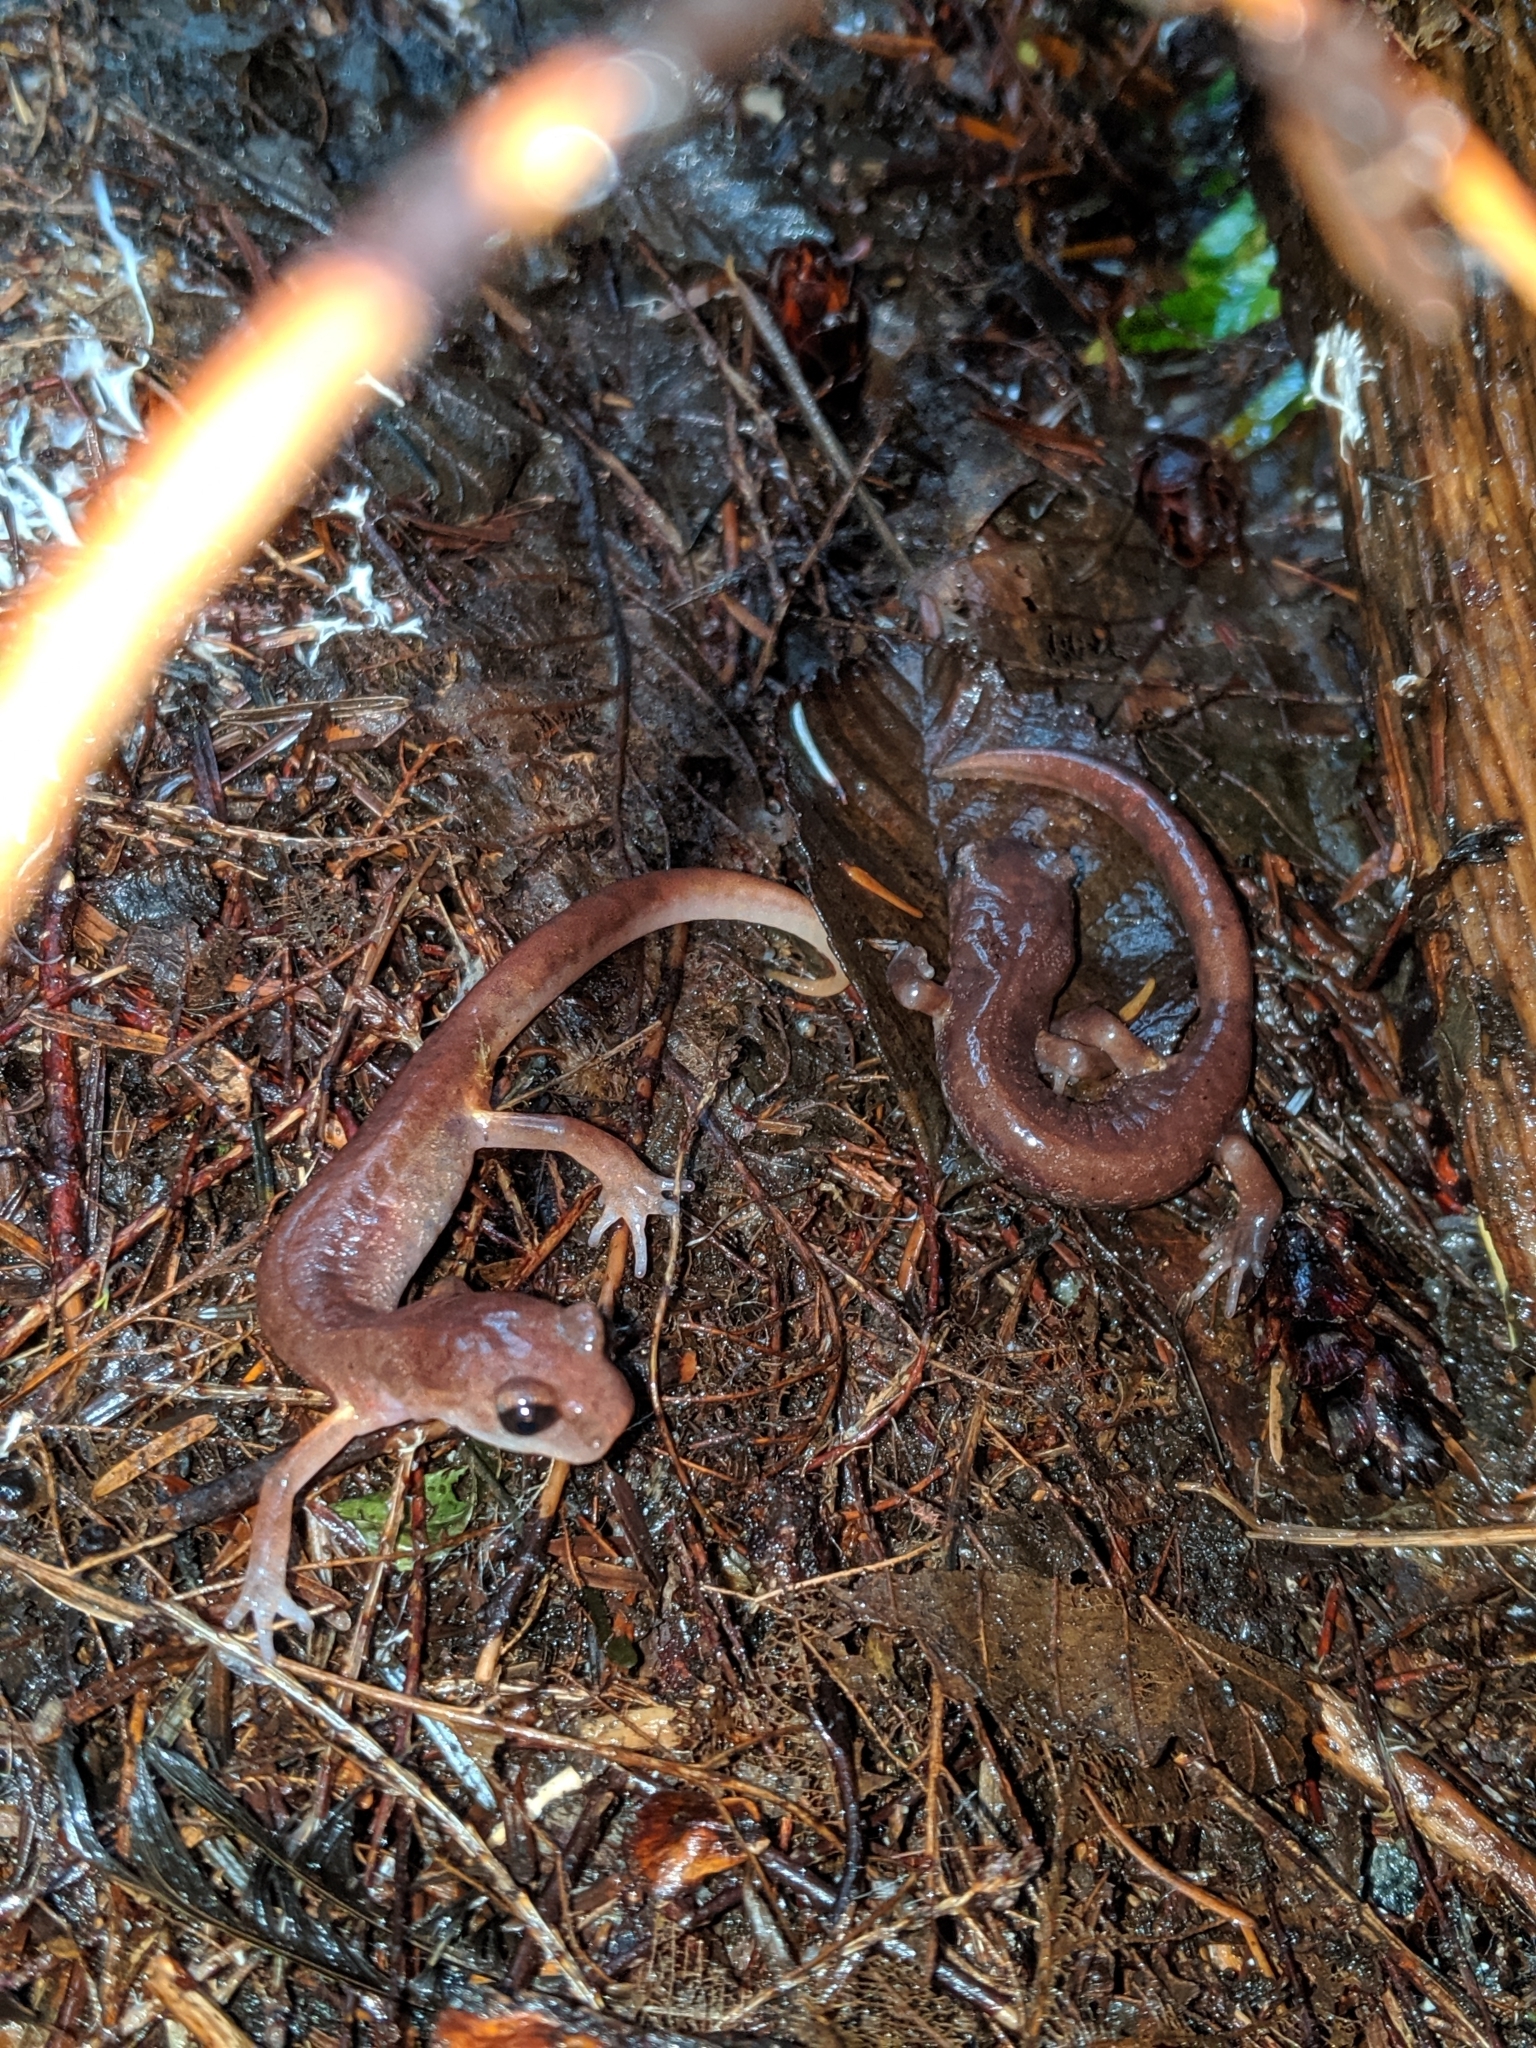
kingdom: Animalia
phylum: Chordata
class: Amphibia
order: Caudata
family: Plethodontidae
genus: Ensatina
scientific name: Ensatina eschscholtzii
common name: Ensatina
